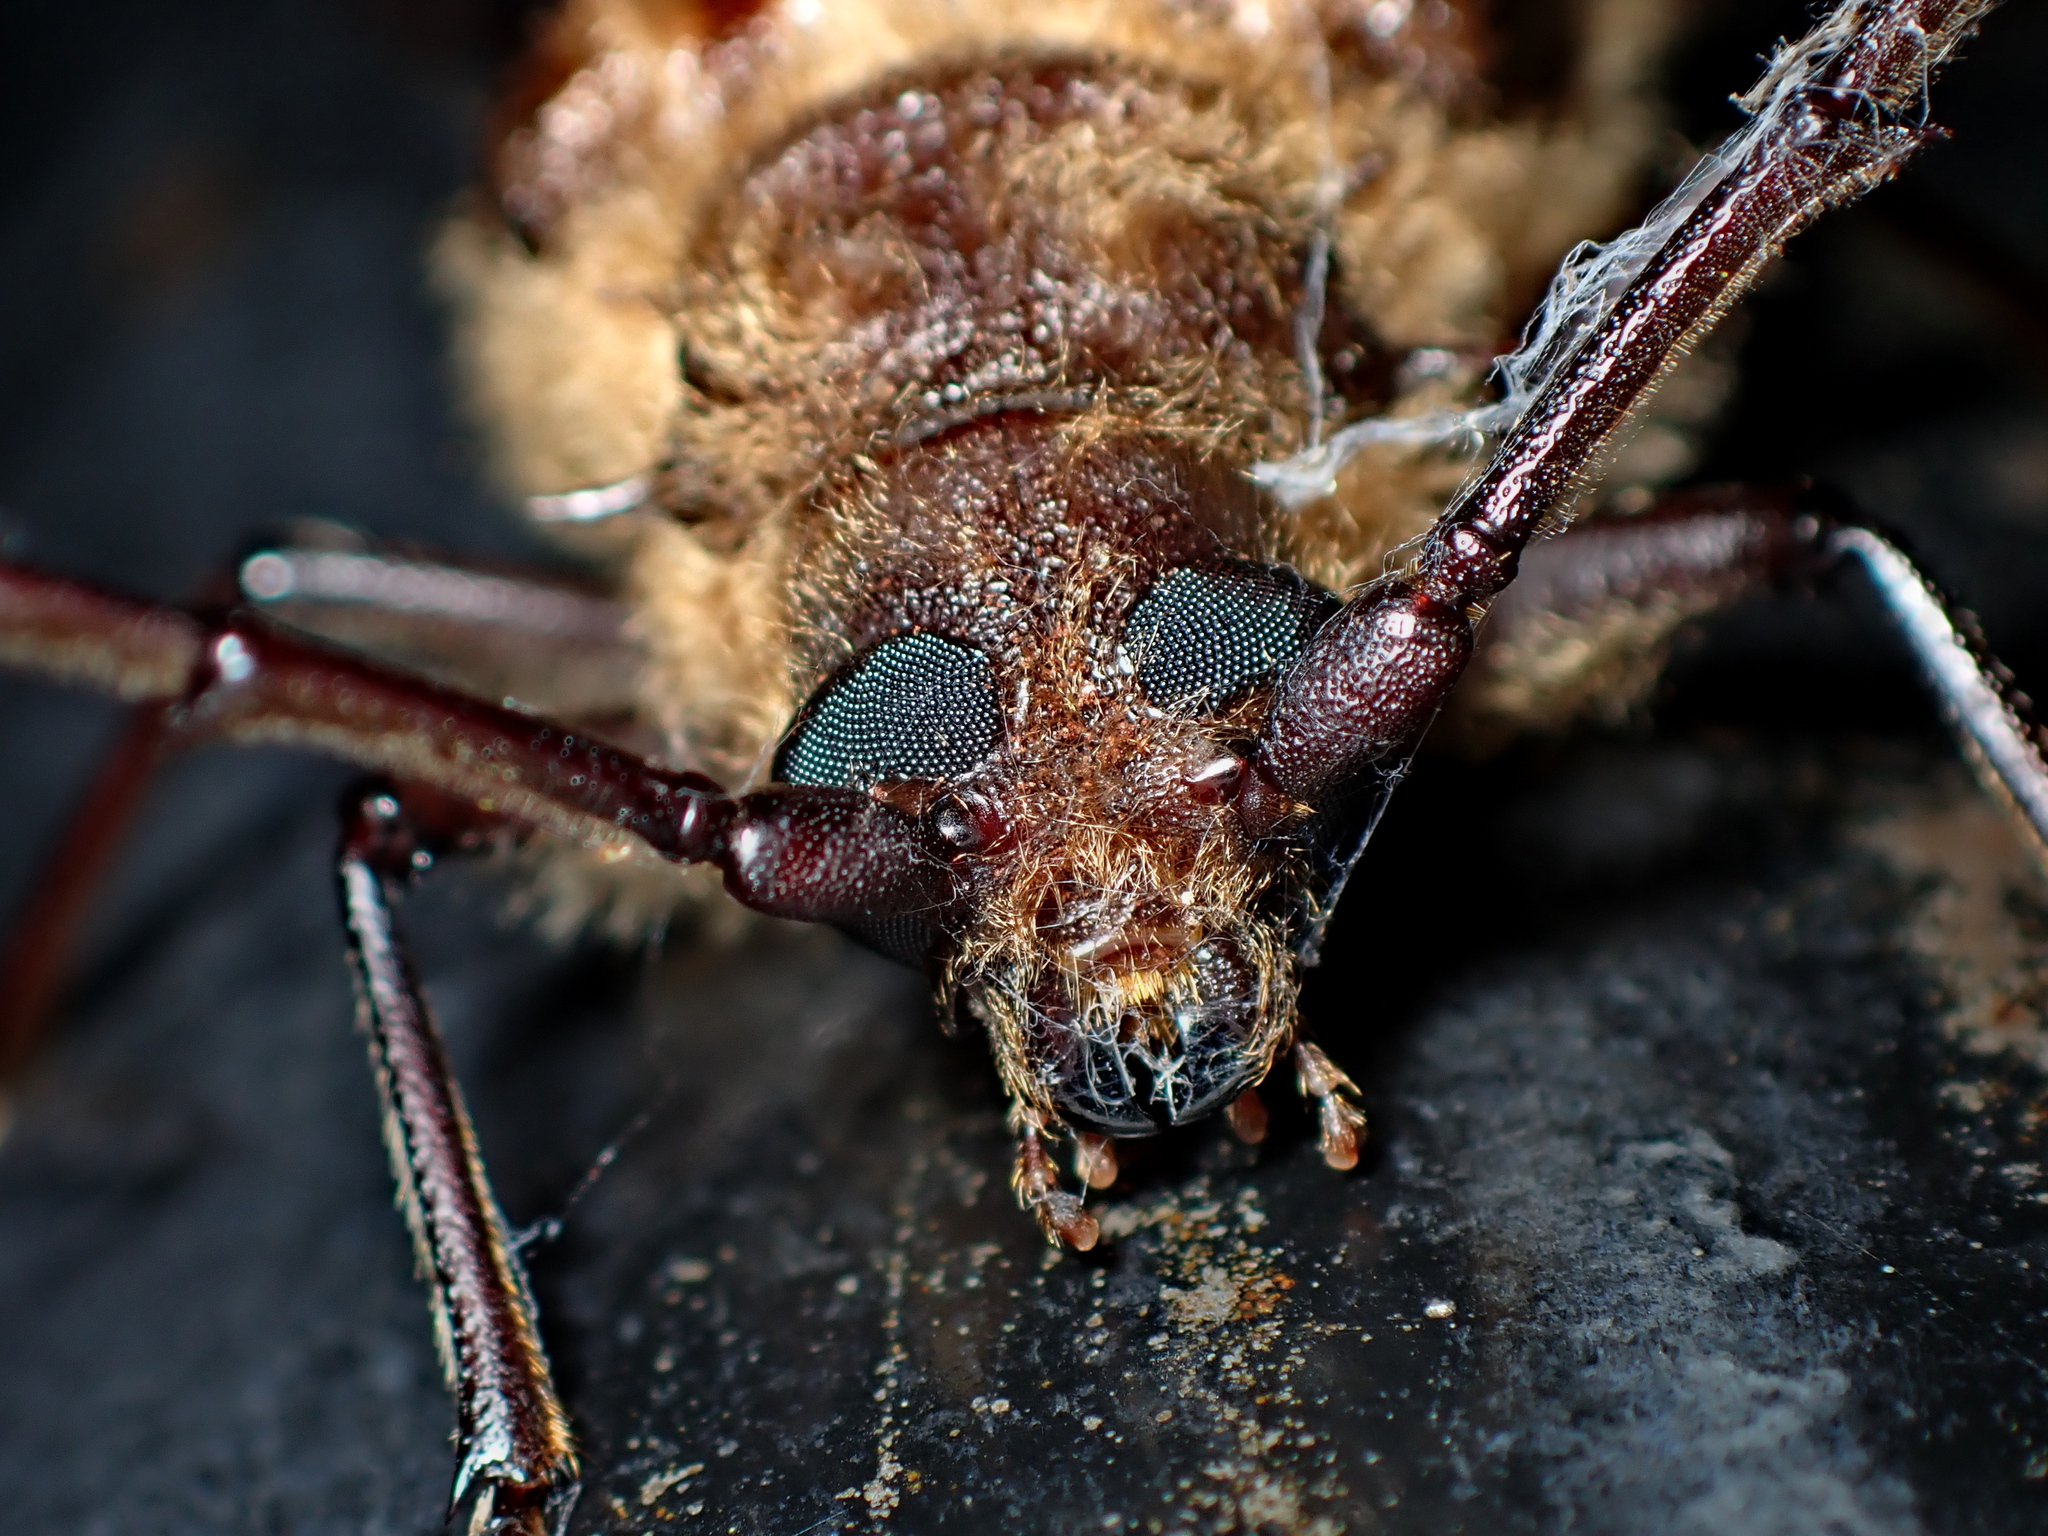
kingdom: Animalia
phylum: Arthropoda
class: Insecta
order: Coleoptera
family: Cerambycidae
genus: Prionoplus
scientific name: Prionoplus reticularis
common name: Huhu beetle
